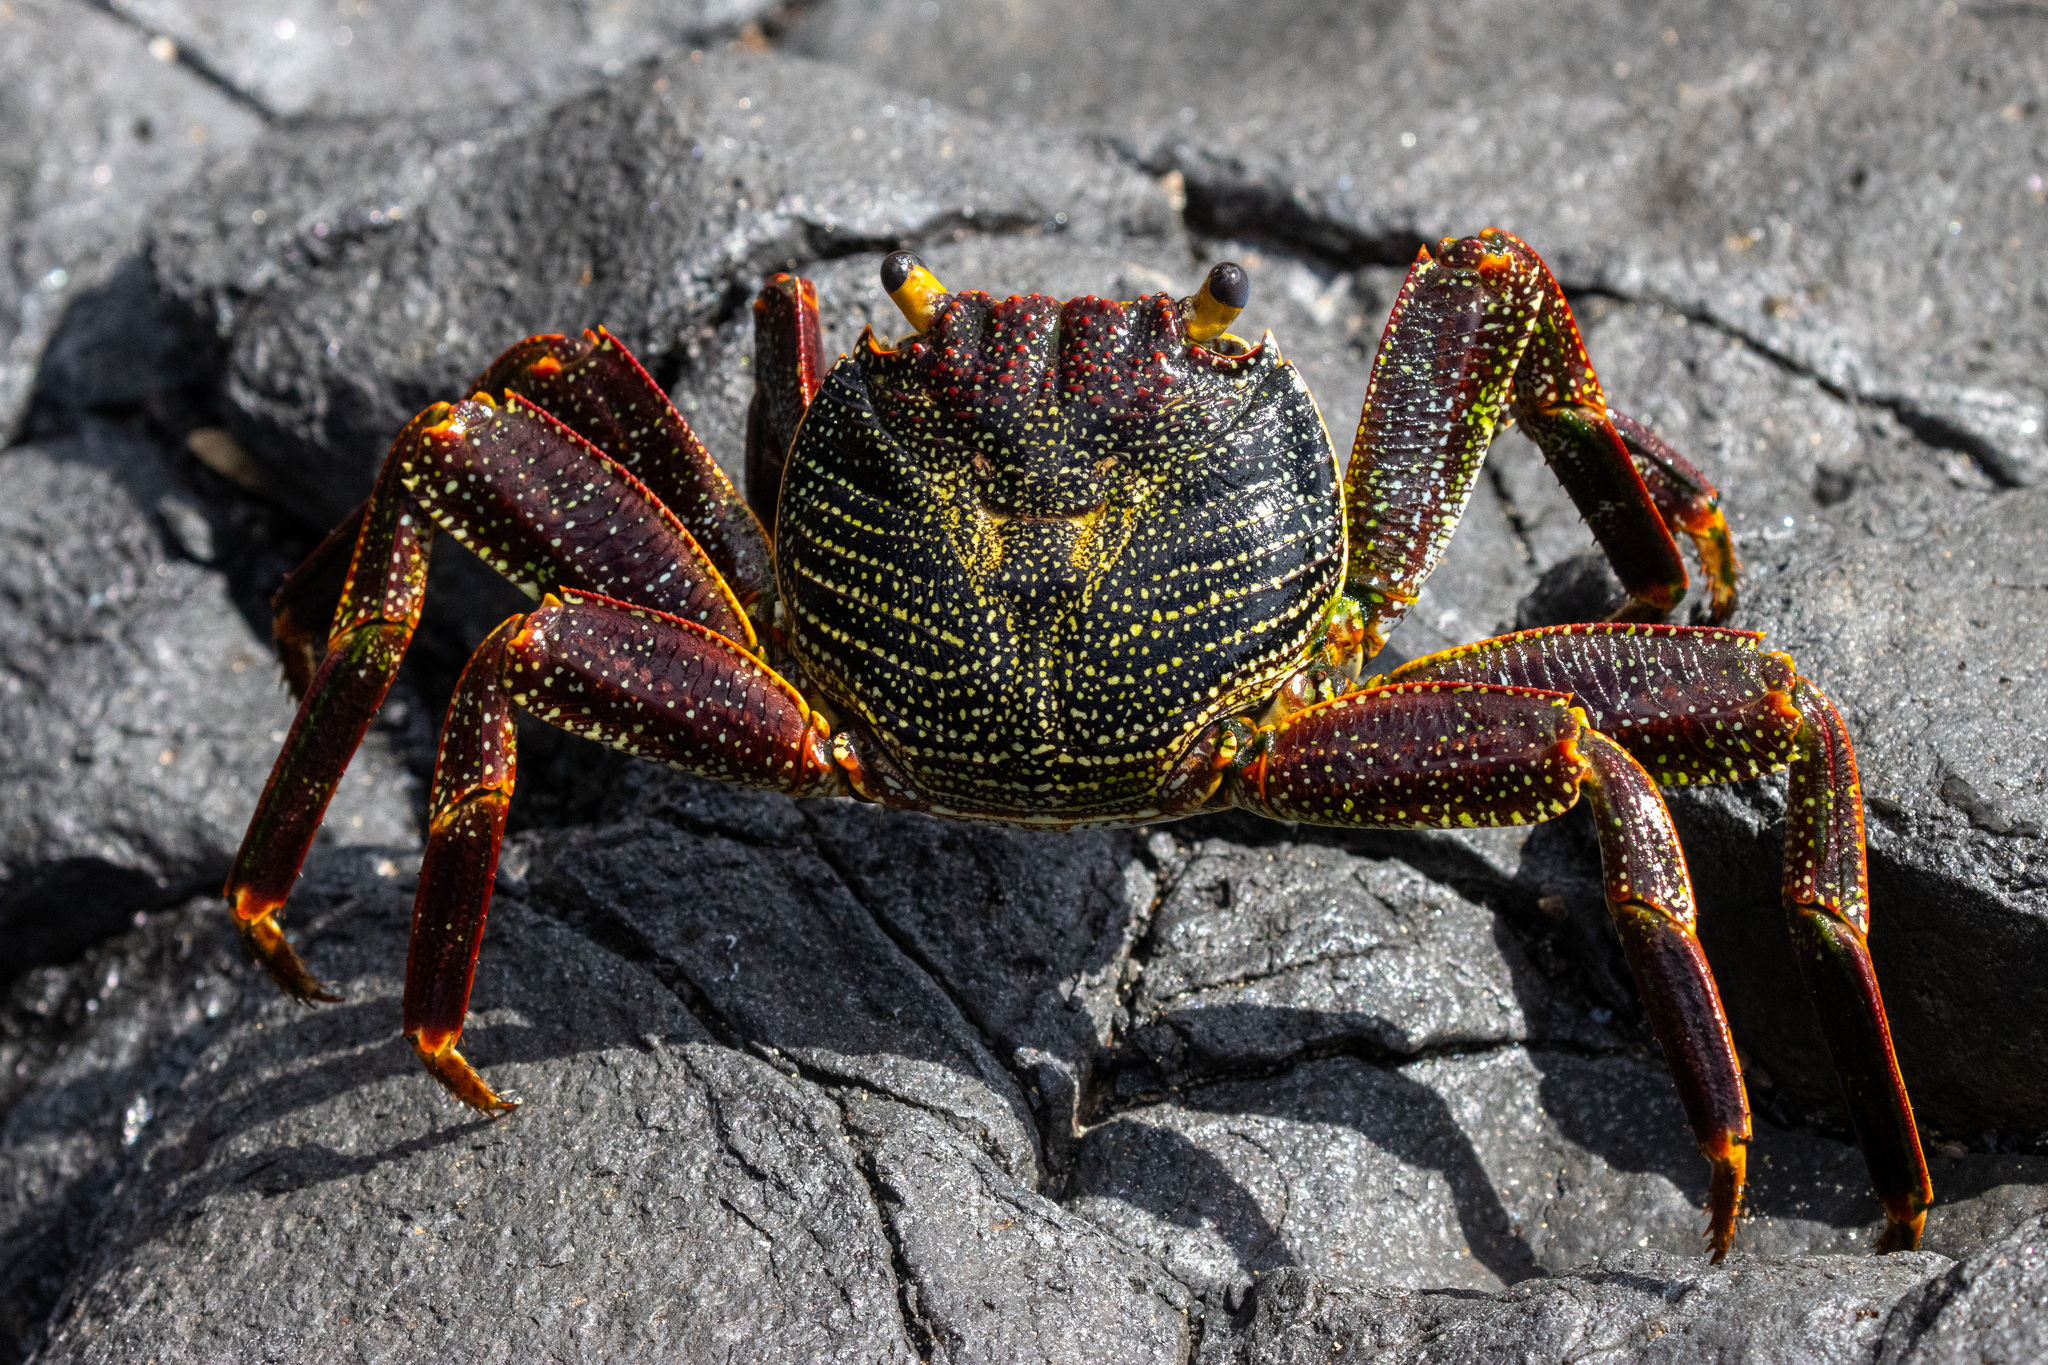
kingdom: Animalia
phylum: Arthropoda
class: Malacostraca
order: Decapoda
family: Grapsidae
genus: Grapsus
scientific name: Grapsus grapsus
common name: Sally lightfoot
